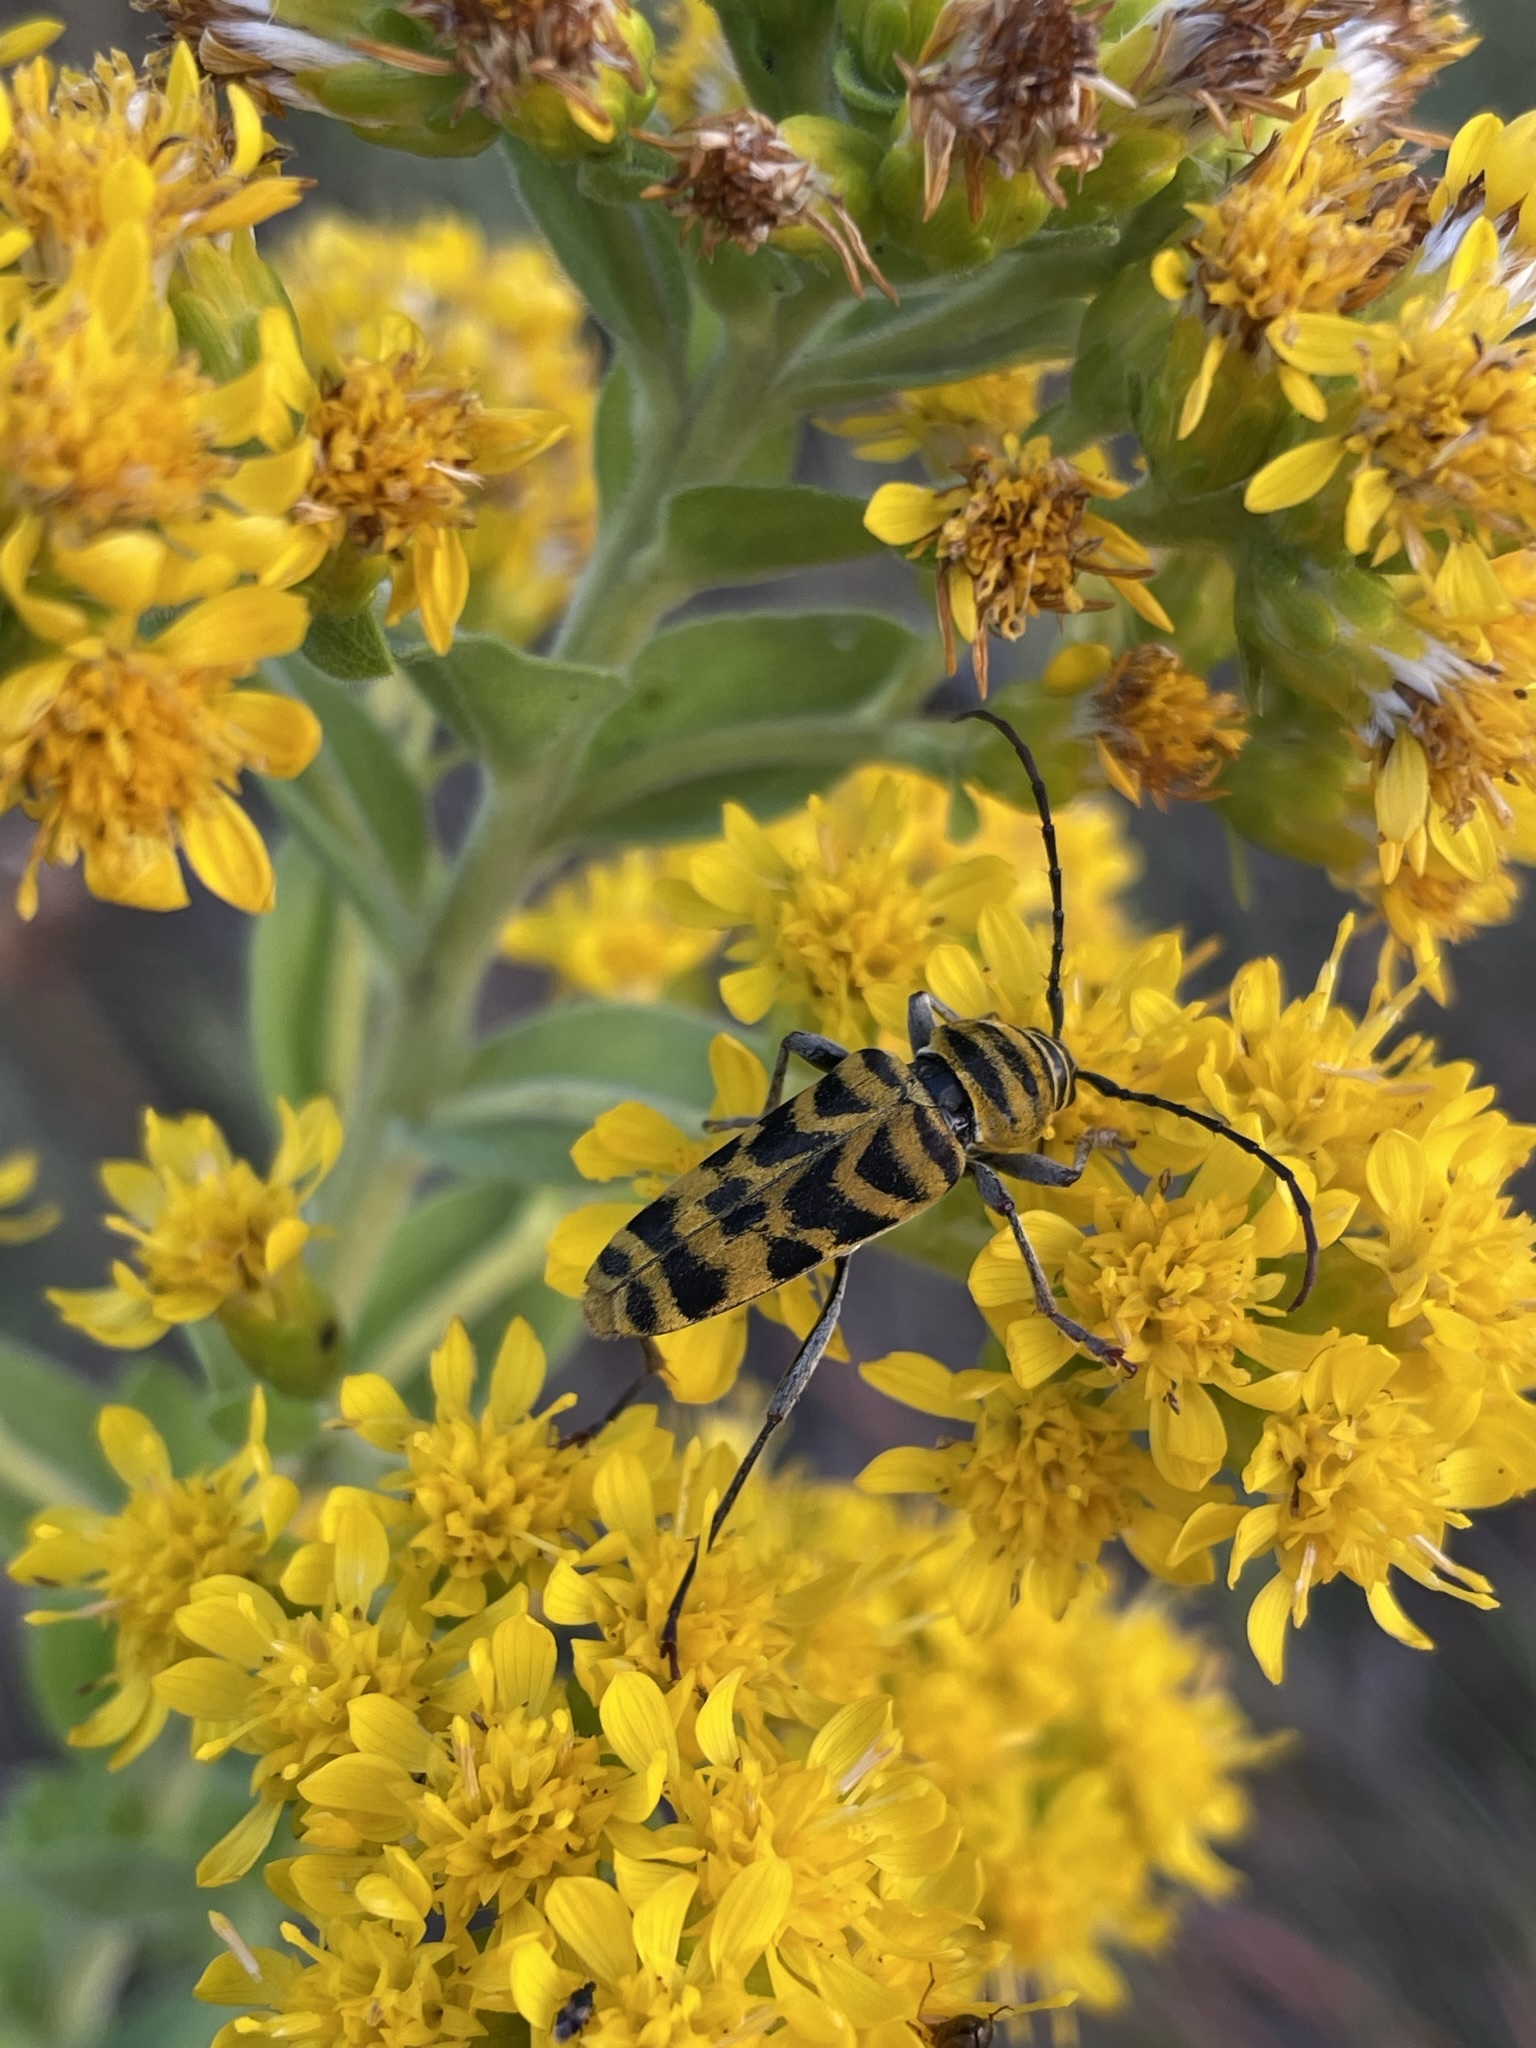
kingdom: Animalia
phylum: Arthropoda
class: Insecta
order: Coleoptera
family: Cerambycidae
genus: Megacyllene
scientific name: Megacyllene decora
